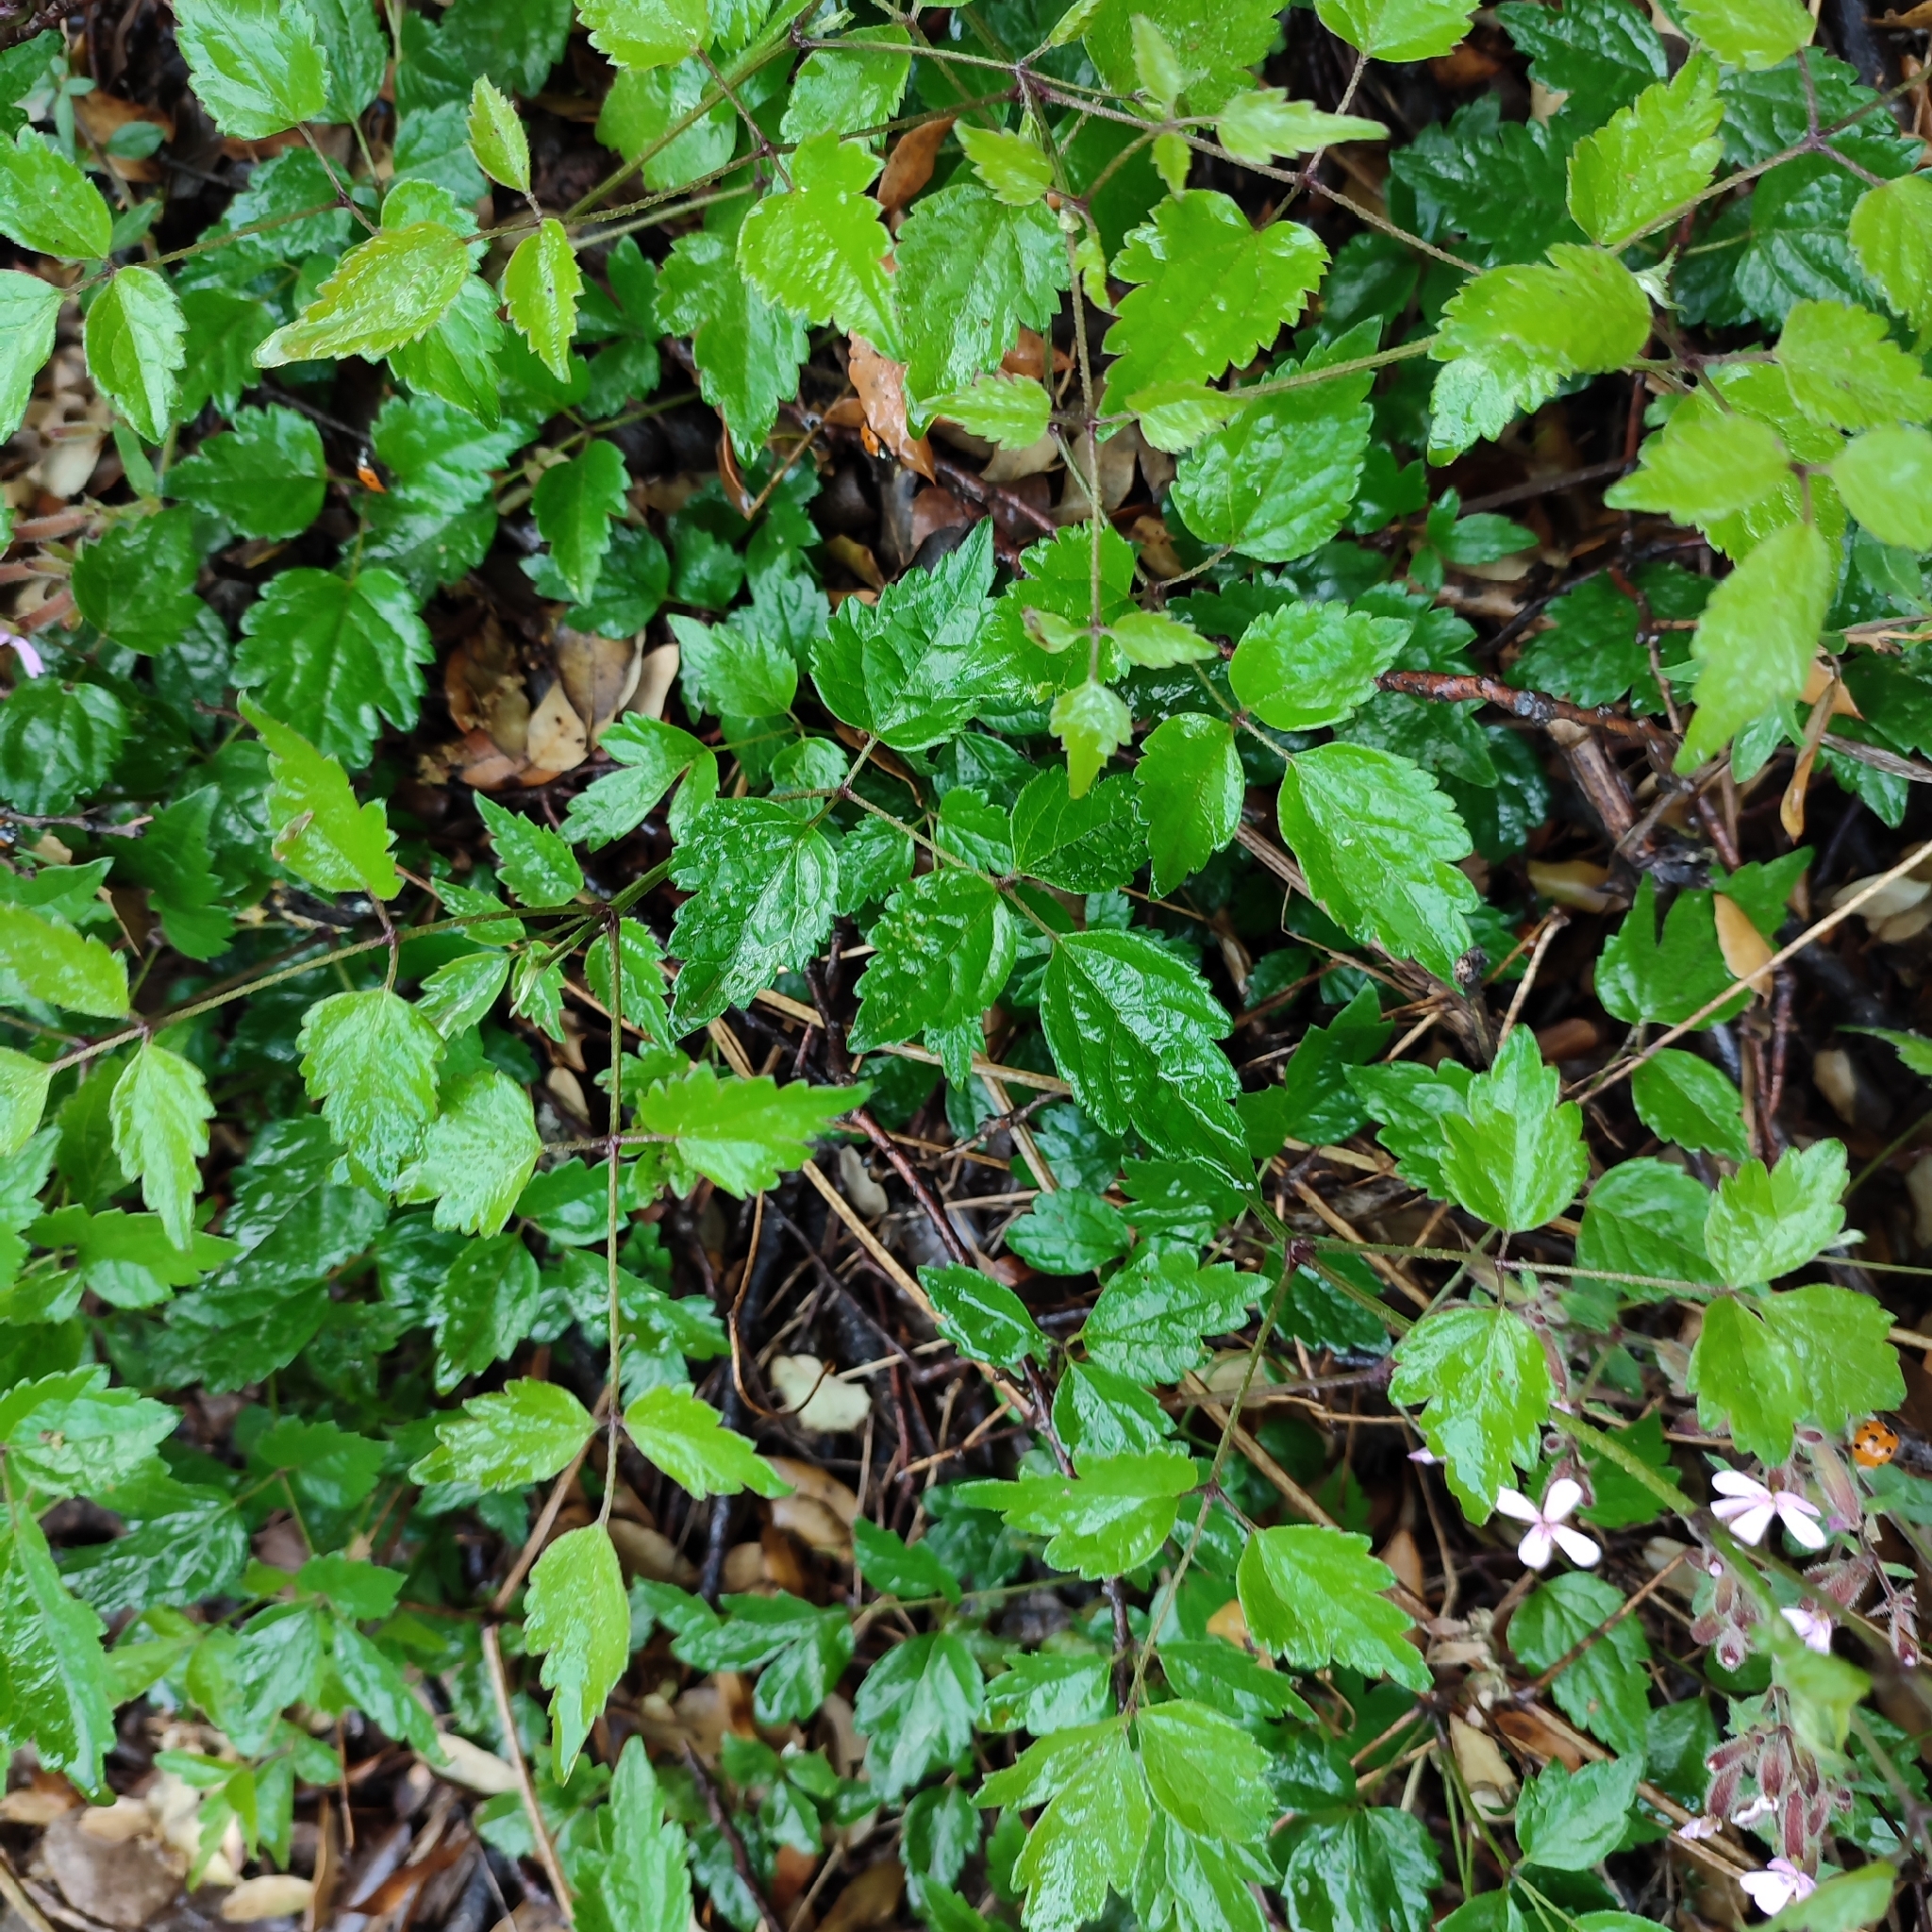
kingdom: Plantae
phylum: Tracheophyta
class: Magnoliopsida
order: Ranunculales
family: Ranunculaceae
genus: Clematis
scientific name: Clematis vitalba
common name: Evergreen clematis
